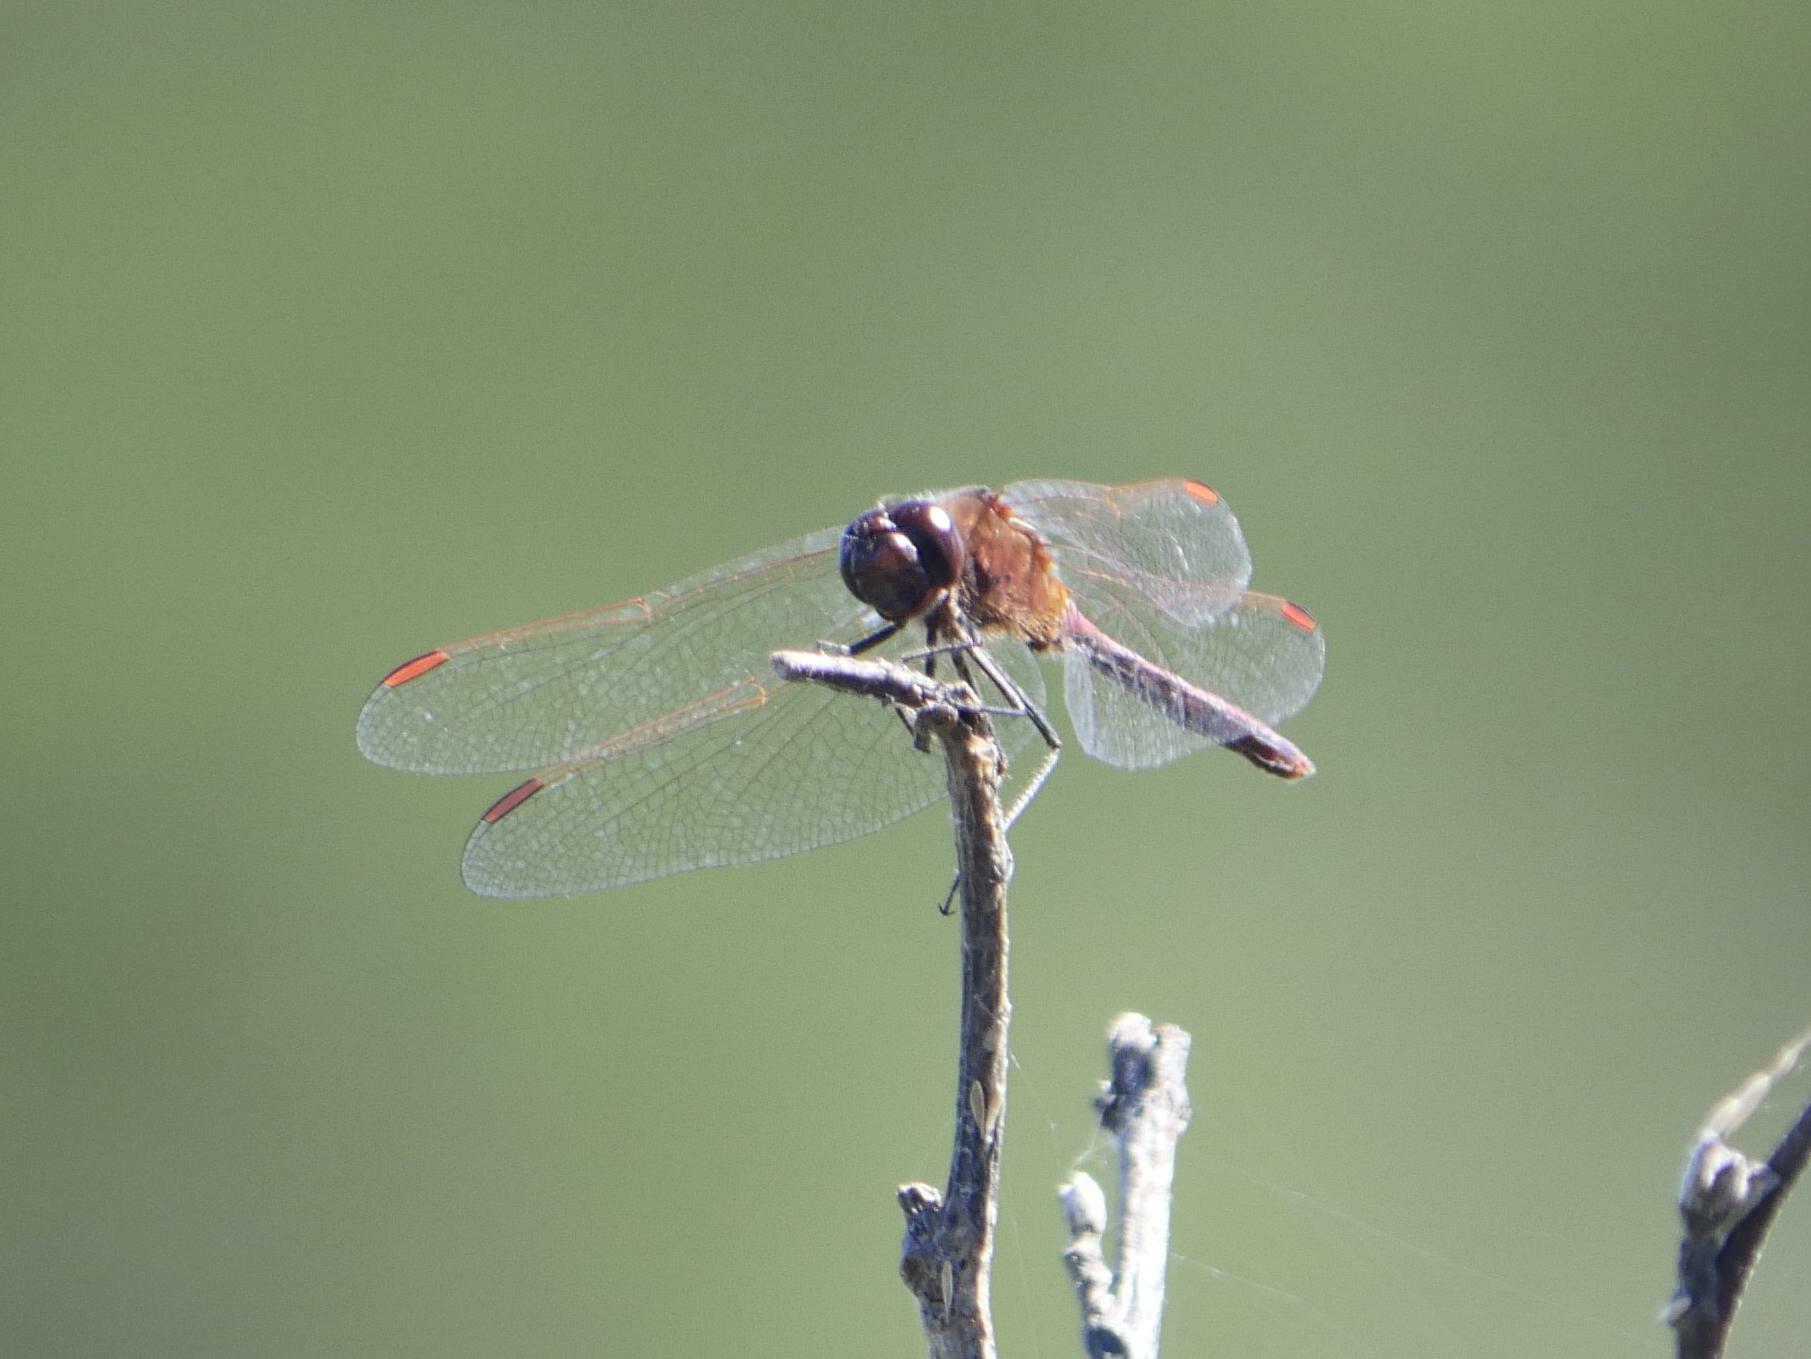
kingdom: Animalia
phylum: Arthropoda
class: Insecta
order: Odonata
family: Libellulidae
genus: Sympetrum
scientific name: Sympetrum costiferum
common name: Saffron-winged meadowhawk
